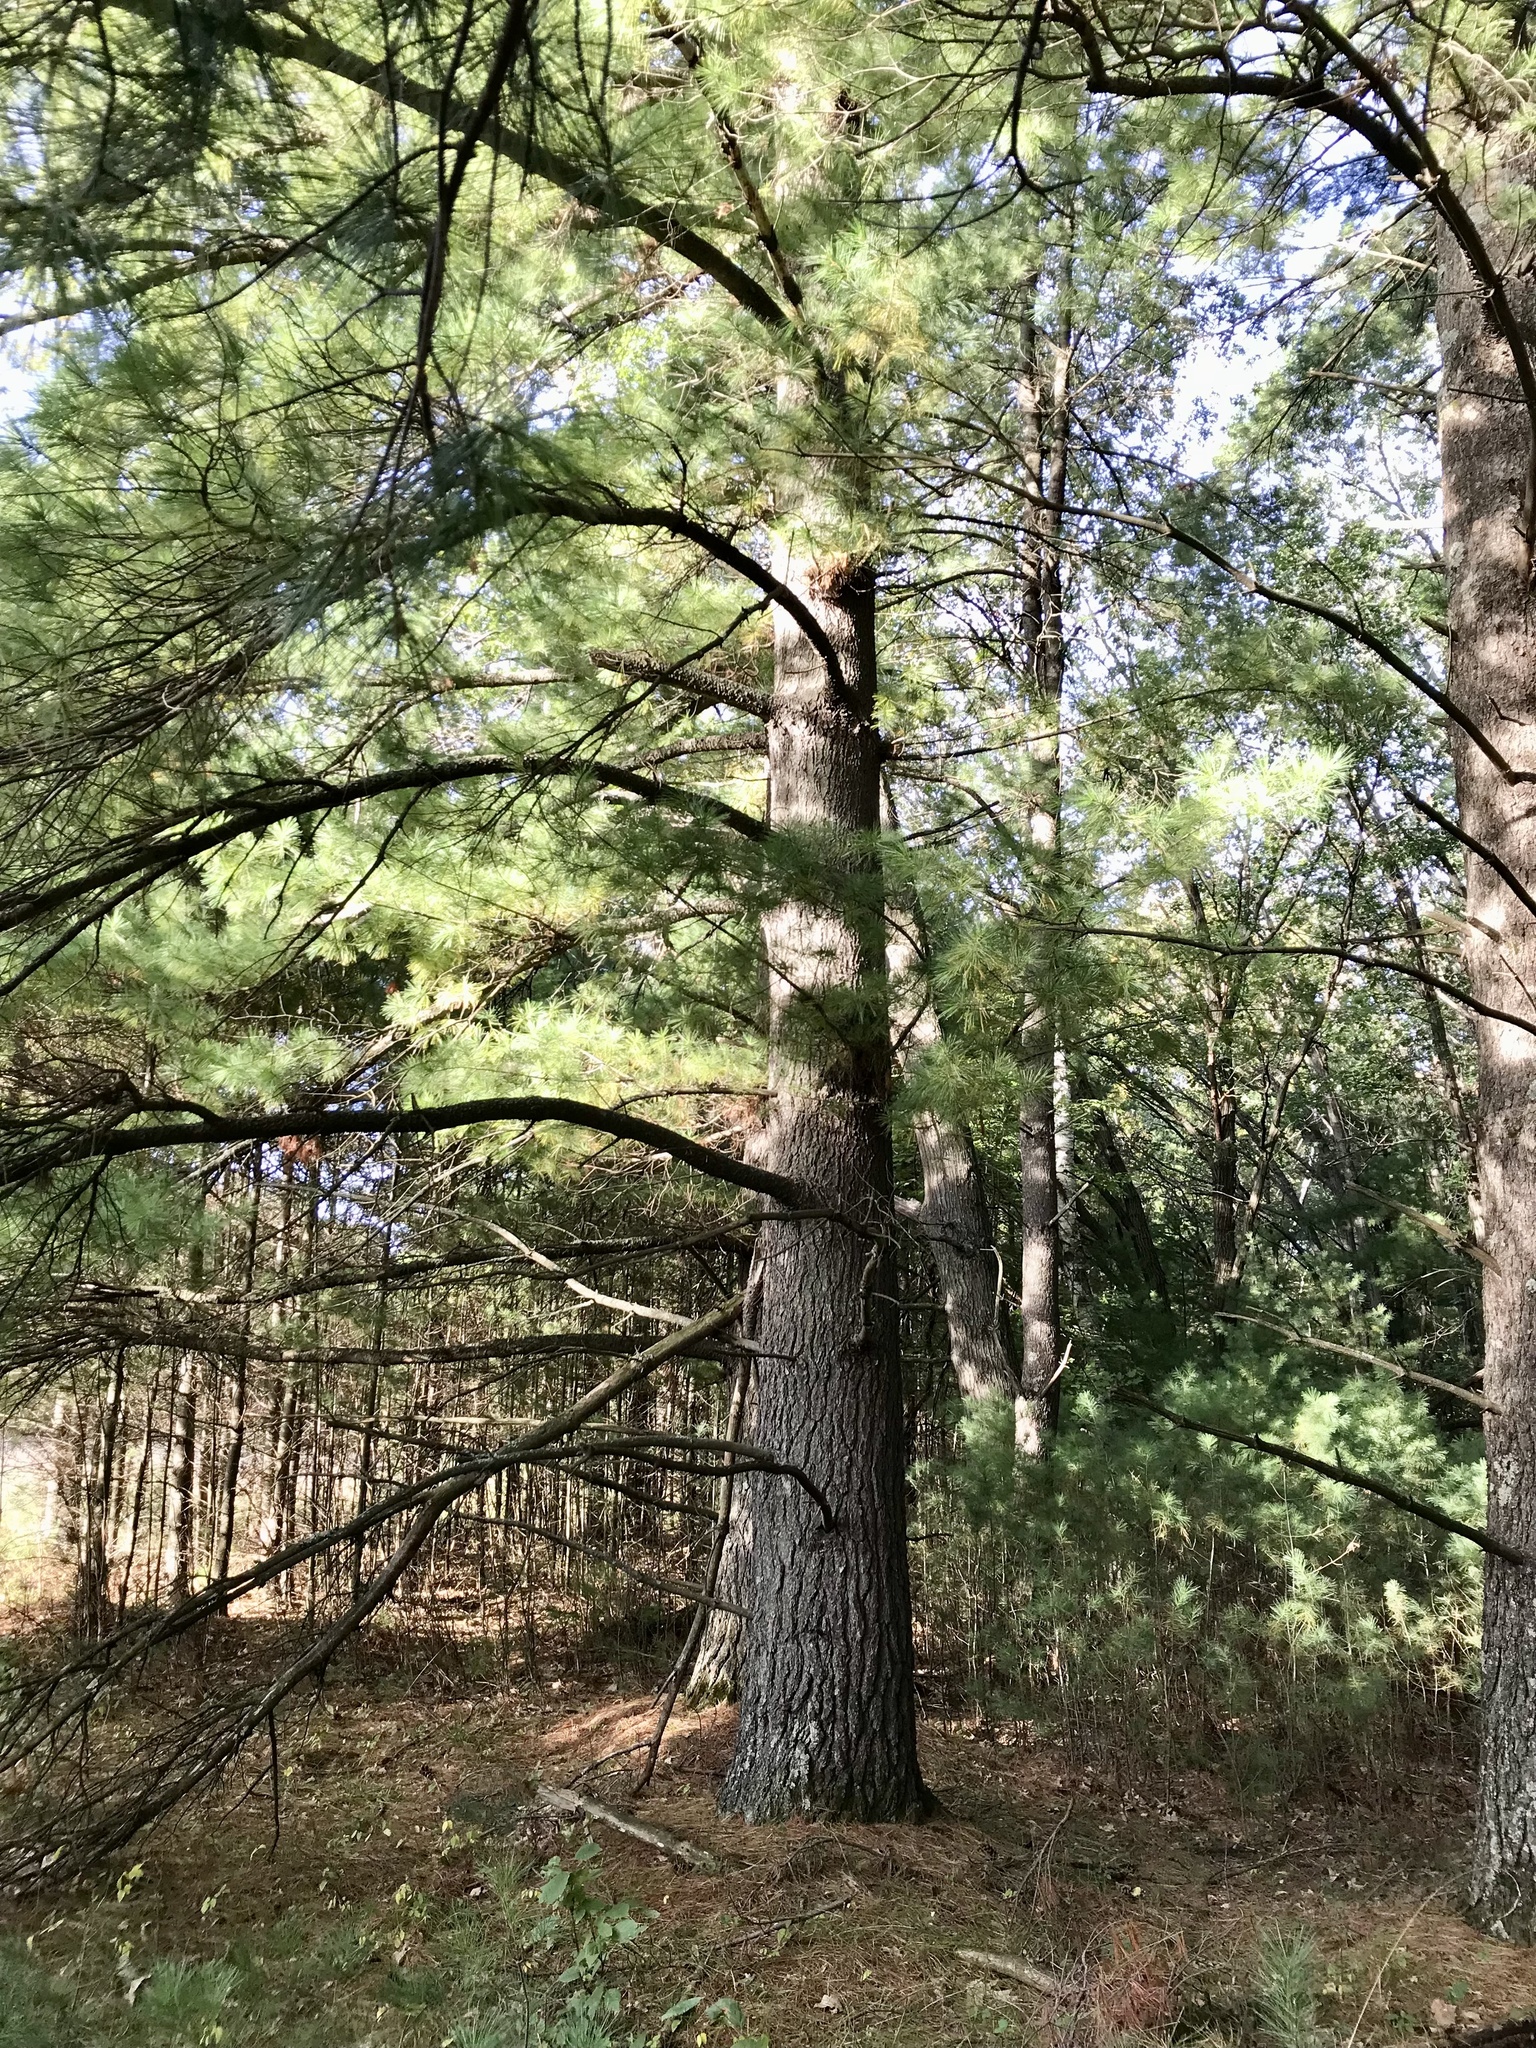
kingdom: Plantae
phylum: Tracheophyta
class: Pinopsida
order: Pinales
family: Pinaceae
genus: Pinus
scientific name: Pinus strobus
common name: Weymouth pine
